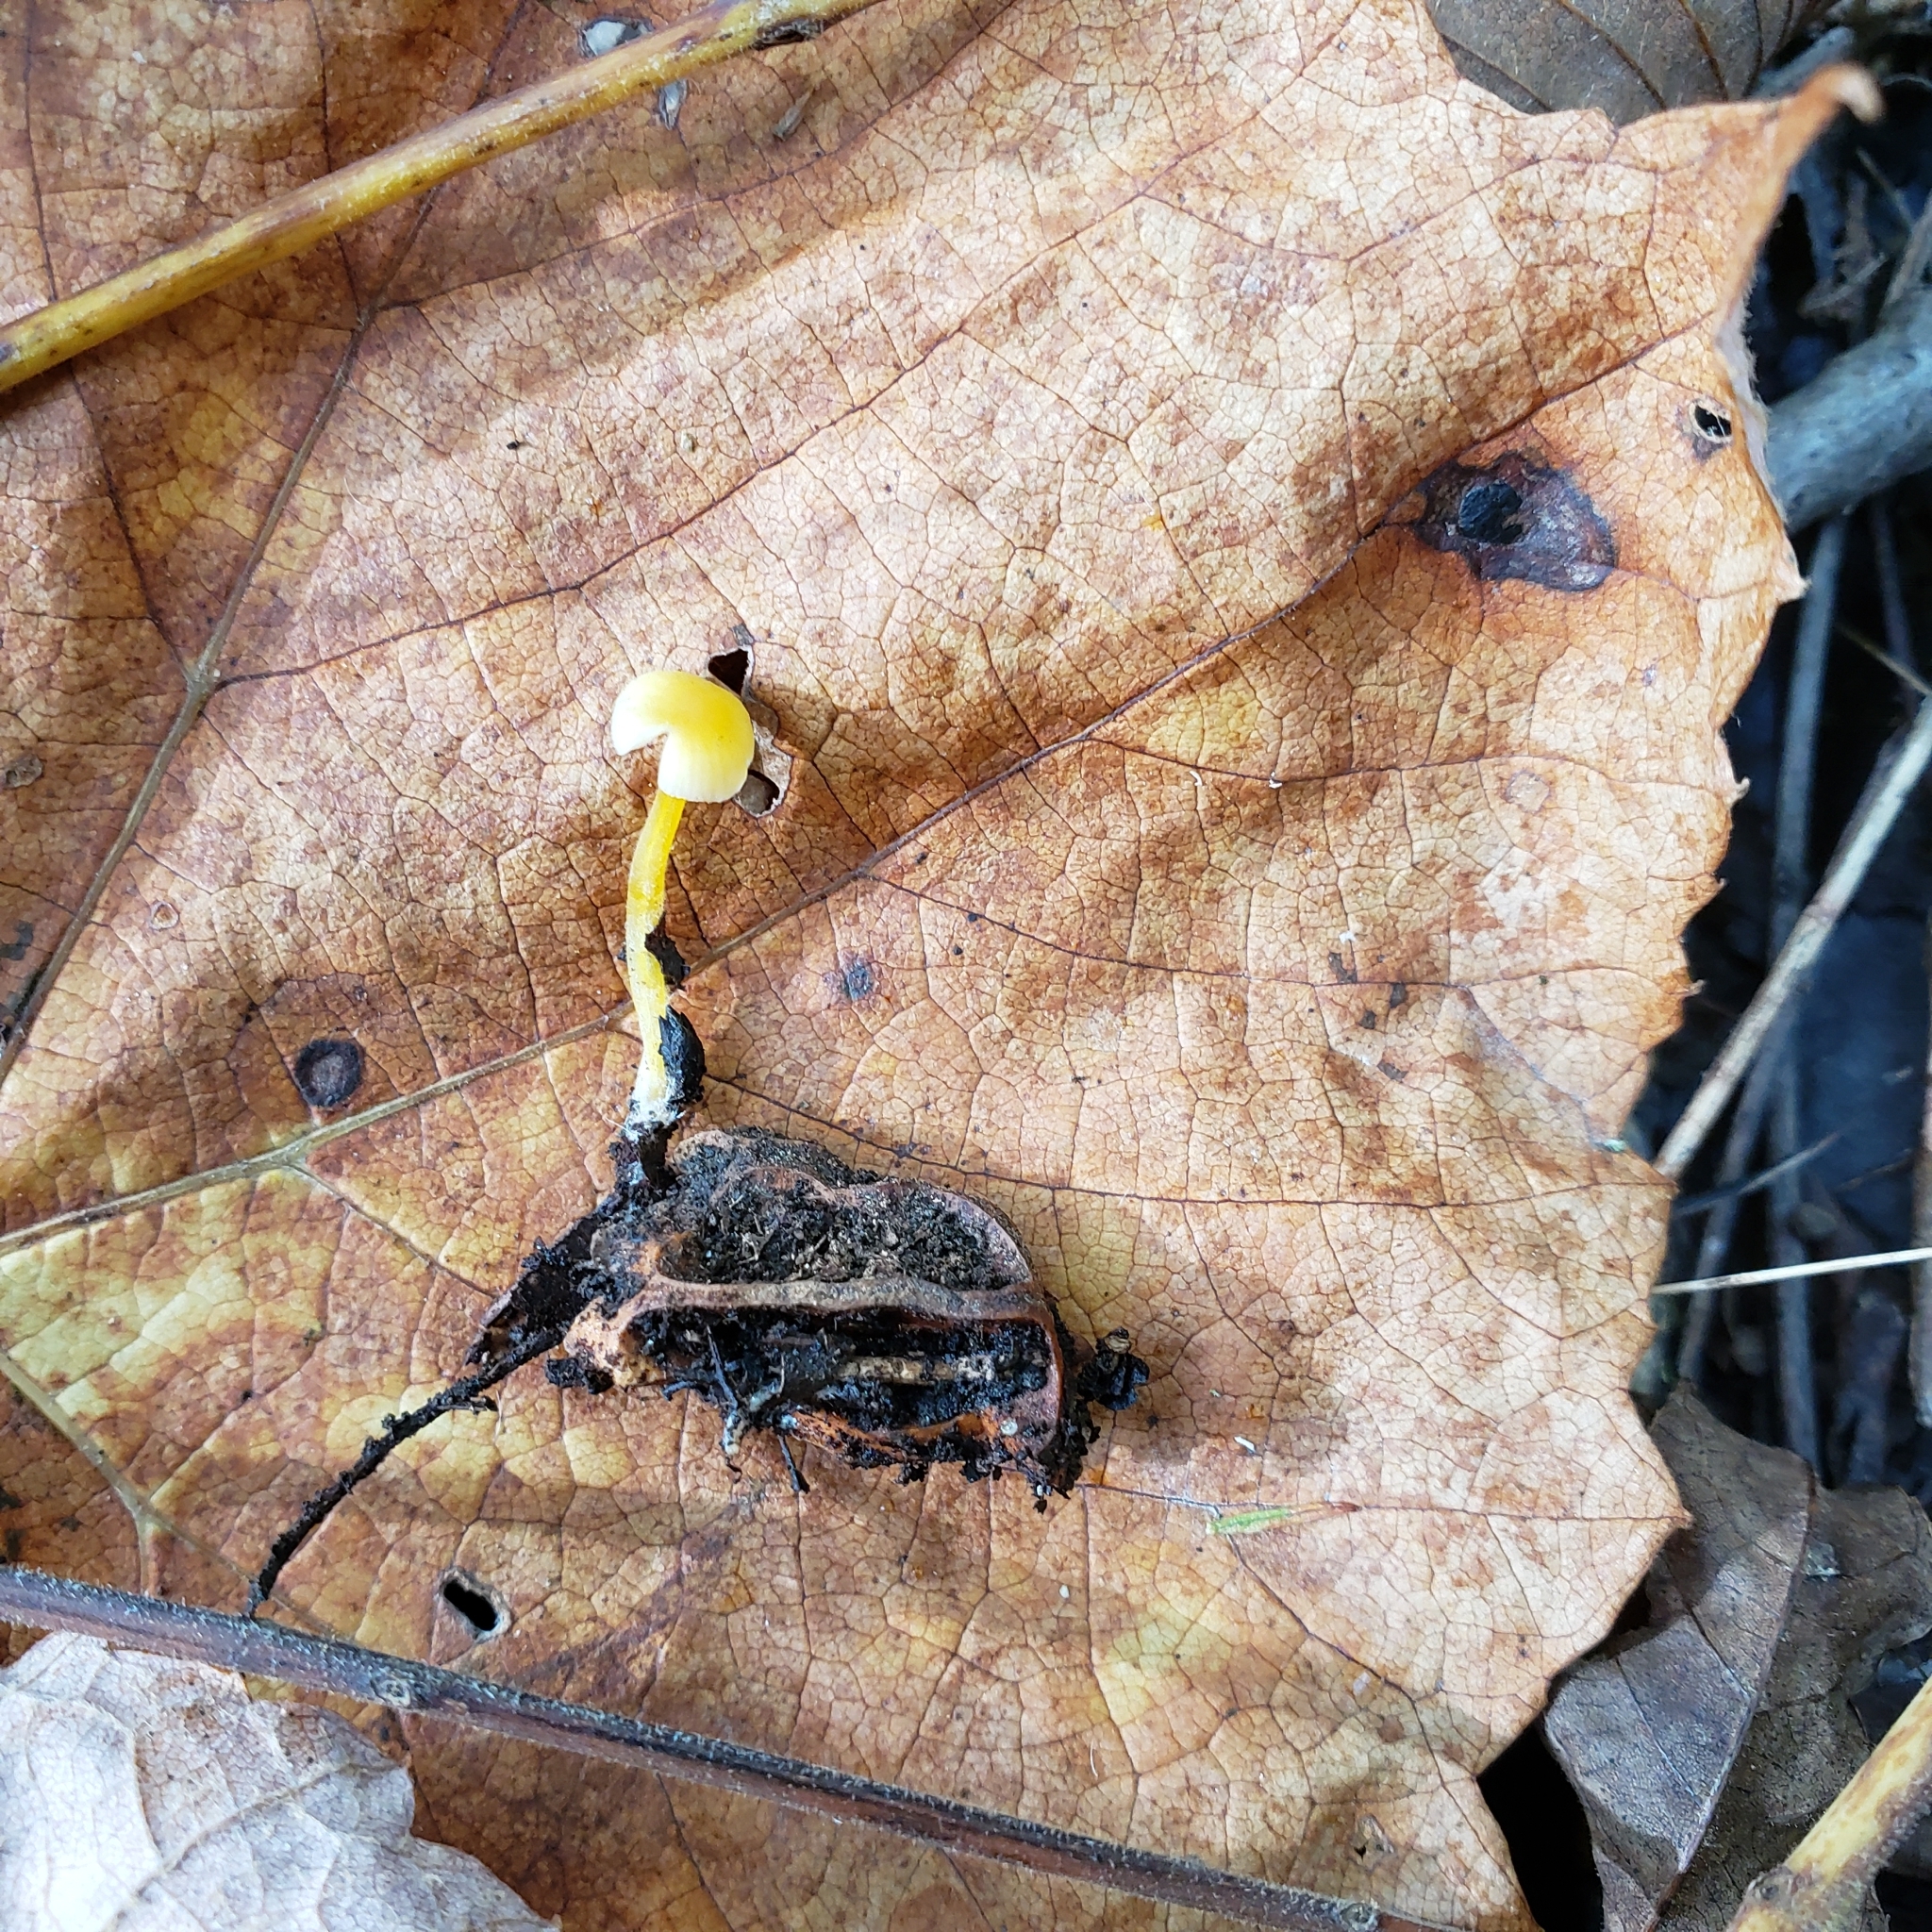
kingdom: Fungi
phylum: Basidiomycota
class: Agaricomycetes
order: Agaricales
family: Mycenaceae
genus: Mycena
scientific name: Mycena crocea
